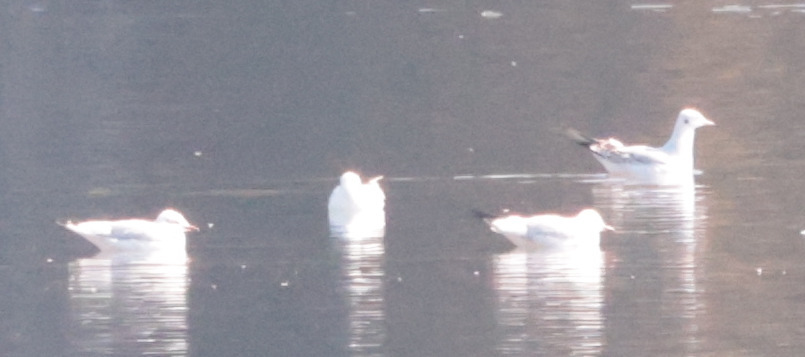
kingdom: Animalia
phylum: Chordata
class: Aves
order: Charadriiformes
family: Laridae
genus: Chroicocephalus
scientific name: Chroicocephalus ridibundus
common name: Black-headed gull
